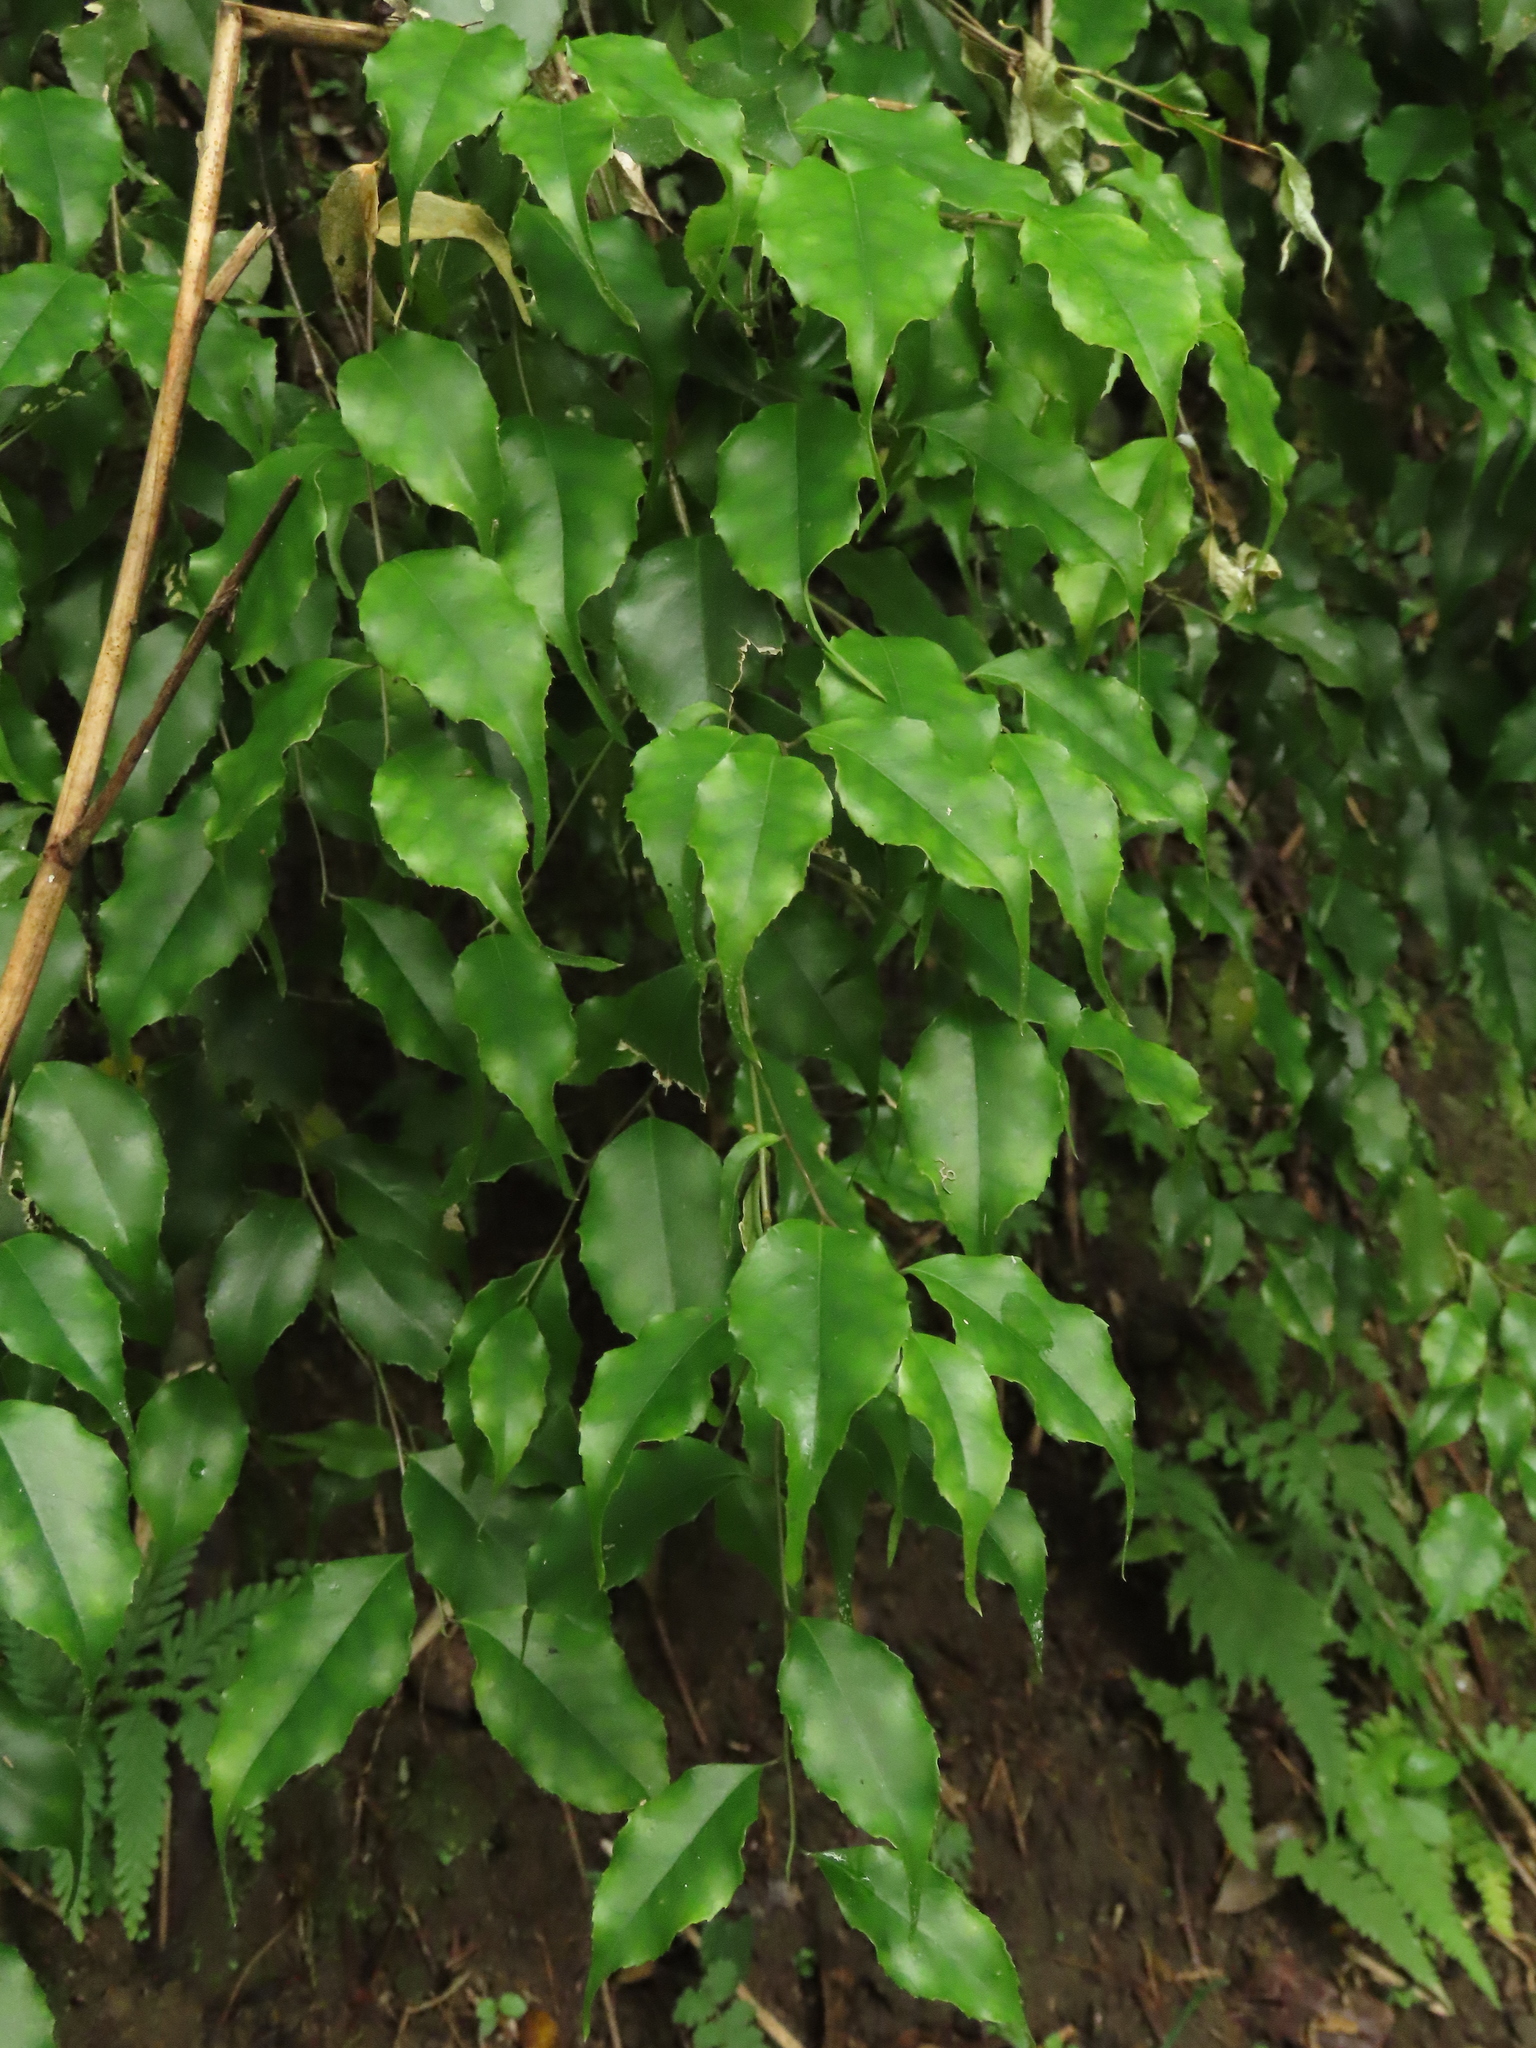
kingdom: Plantae
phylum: Tracheophyta
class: Magnoliopsida
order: Ericales
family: Symplocaceae
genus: Symplocos
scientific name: Symplocos sumuntia
